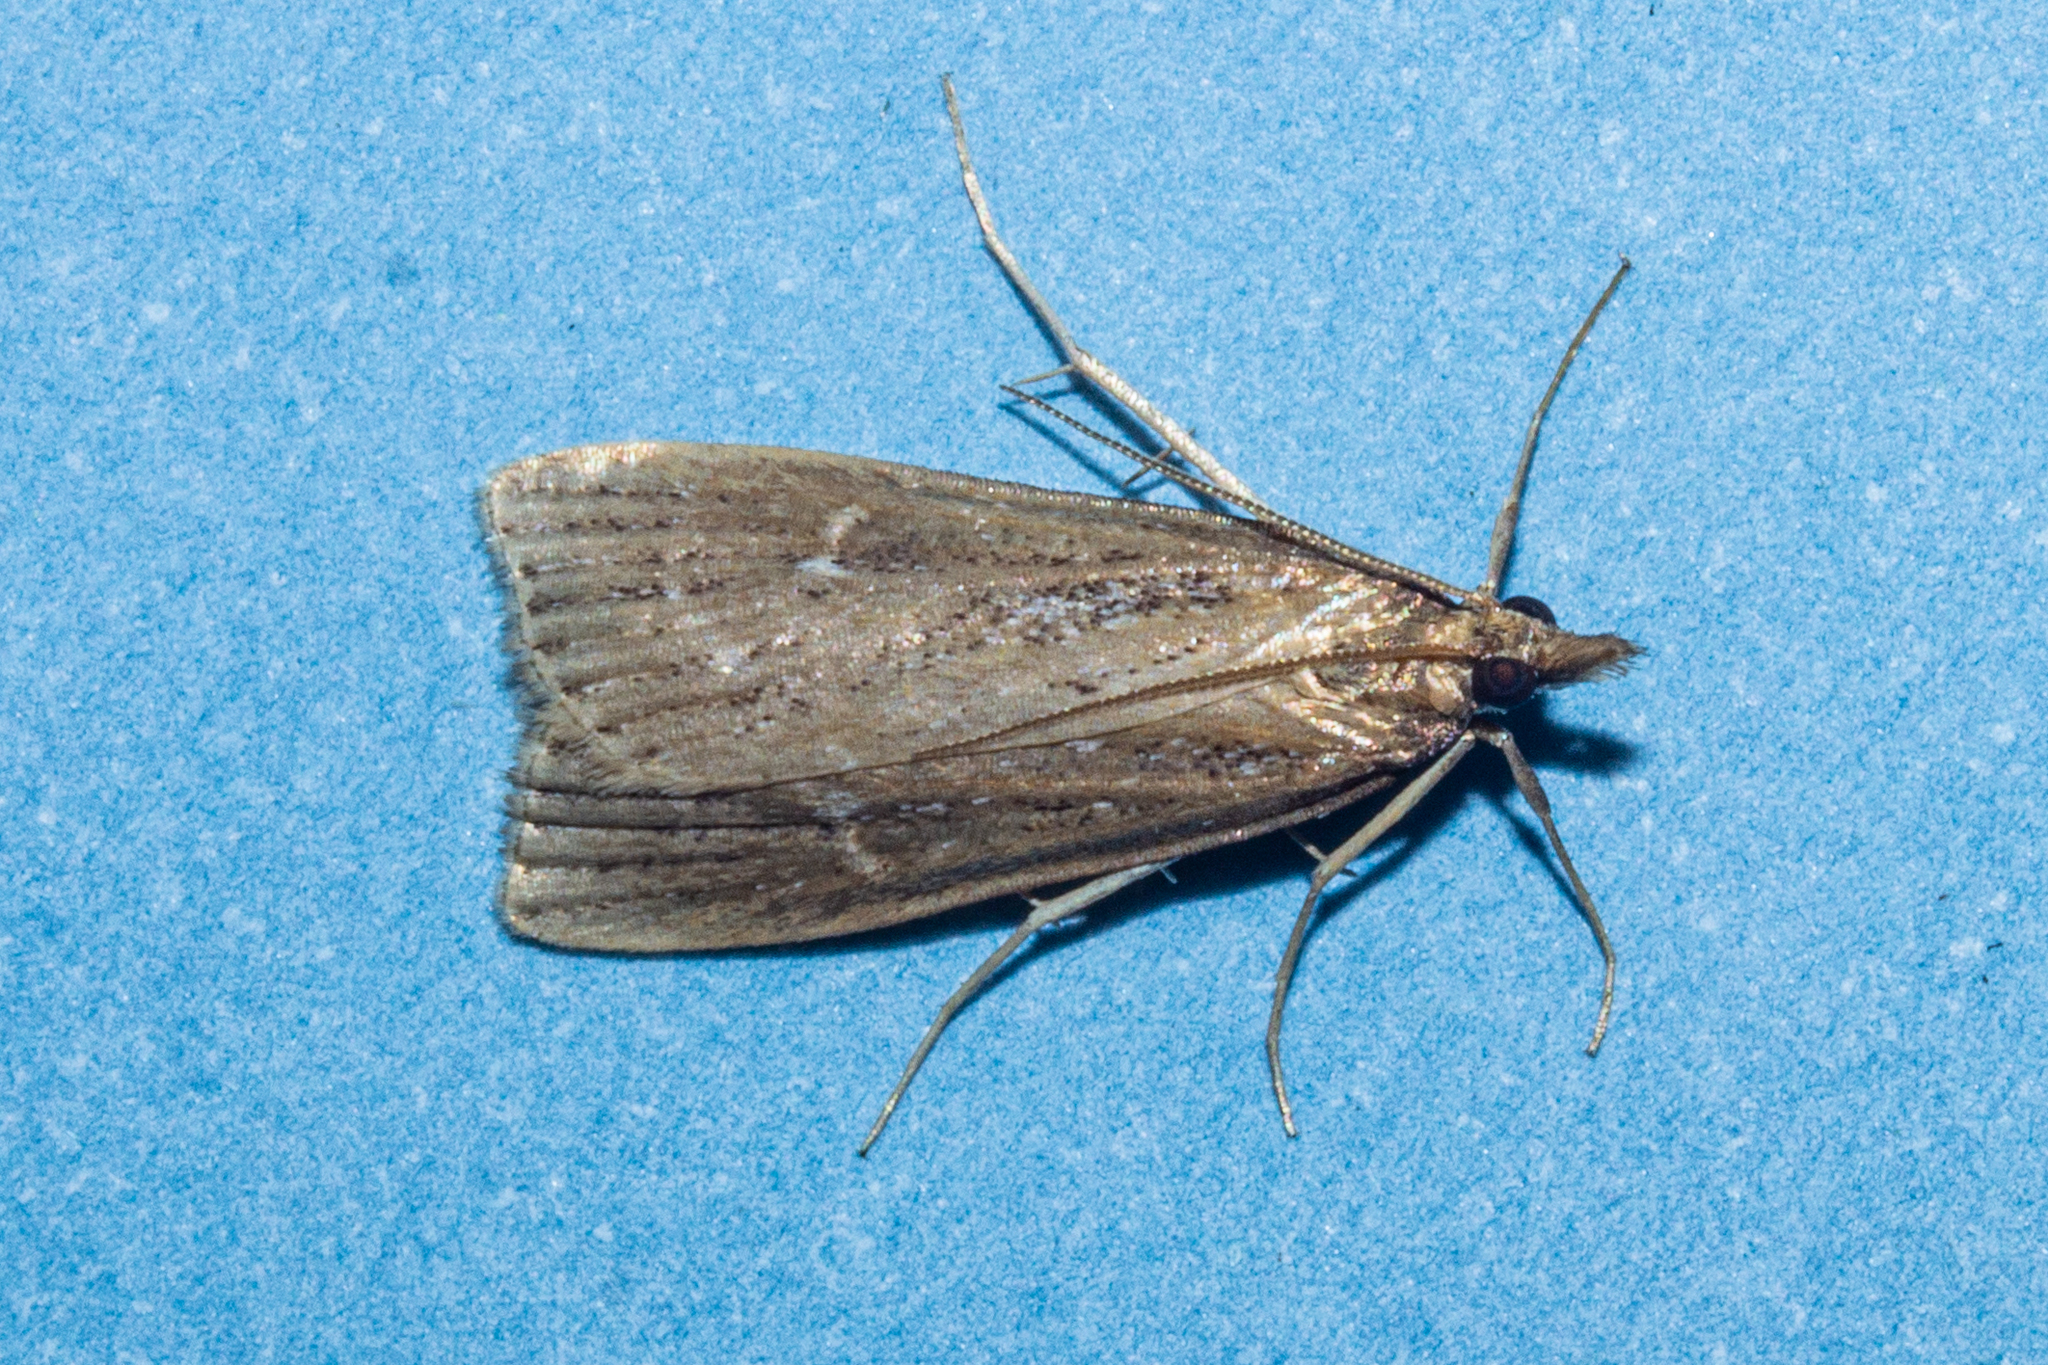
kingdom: Animalia
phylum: Arthropoda
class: Insecta
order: Lepidoptera
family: Crambidae
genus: Eudonia
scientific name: Eudonia octophora
